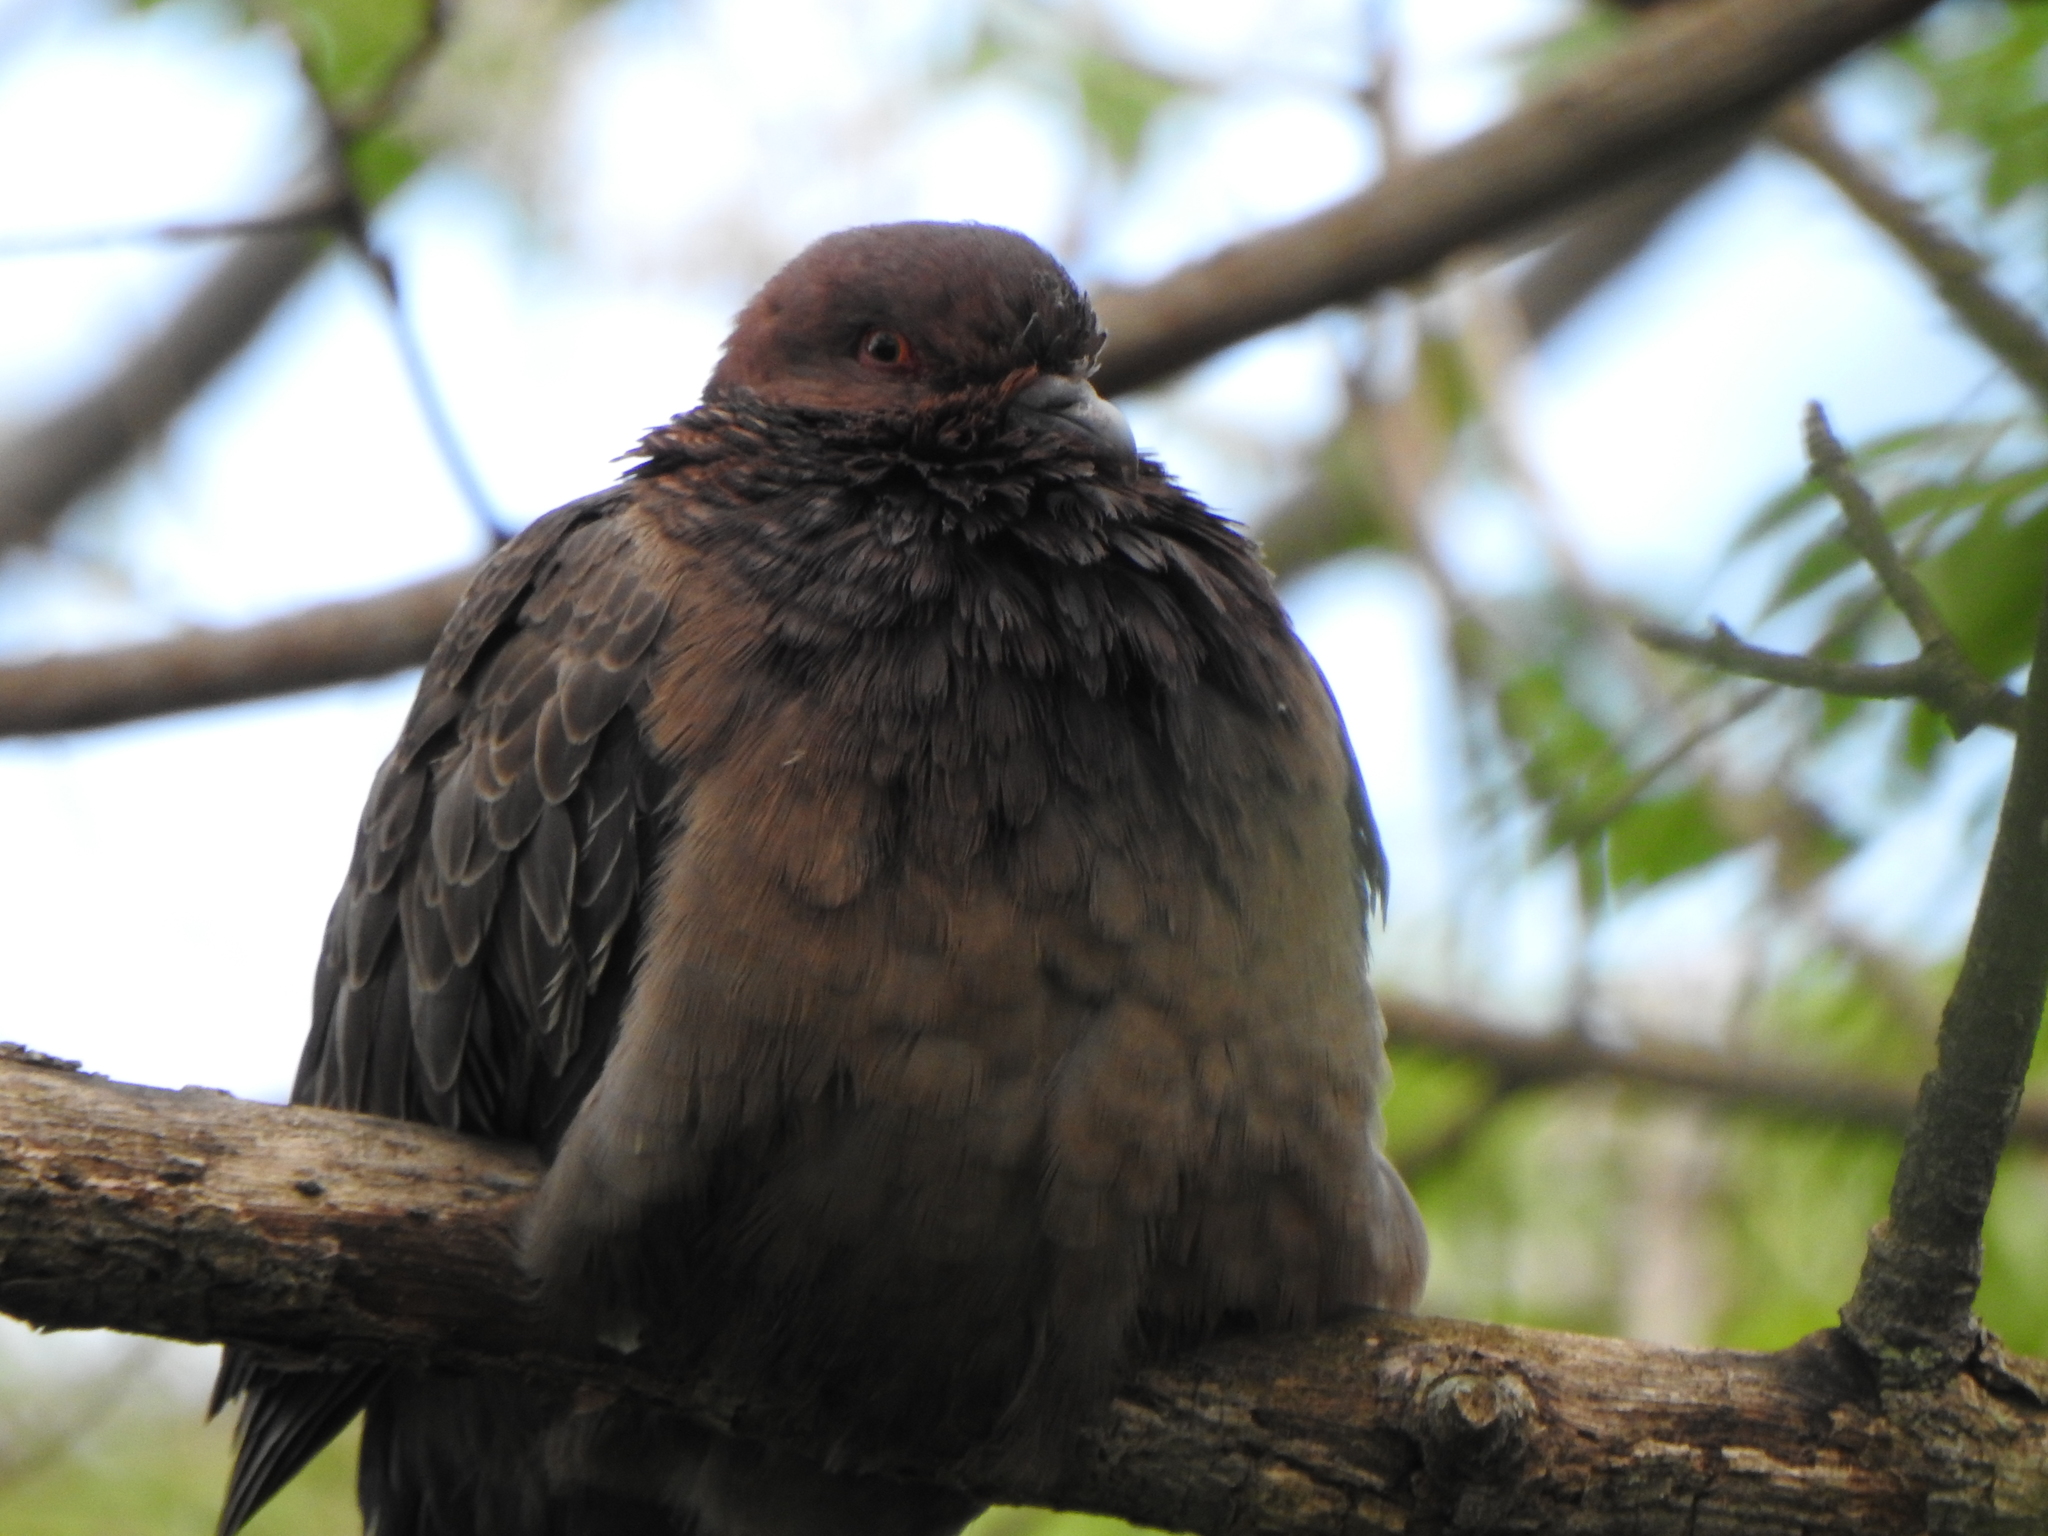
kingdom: Animalia
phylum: Chordata
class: Aves
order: Columbiformes
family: Columbidae
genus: Patagioenas
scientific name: Patagioenas picazuro
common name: Picazuro pigeon
